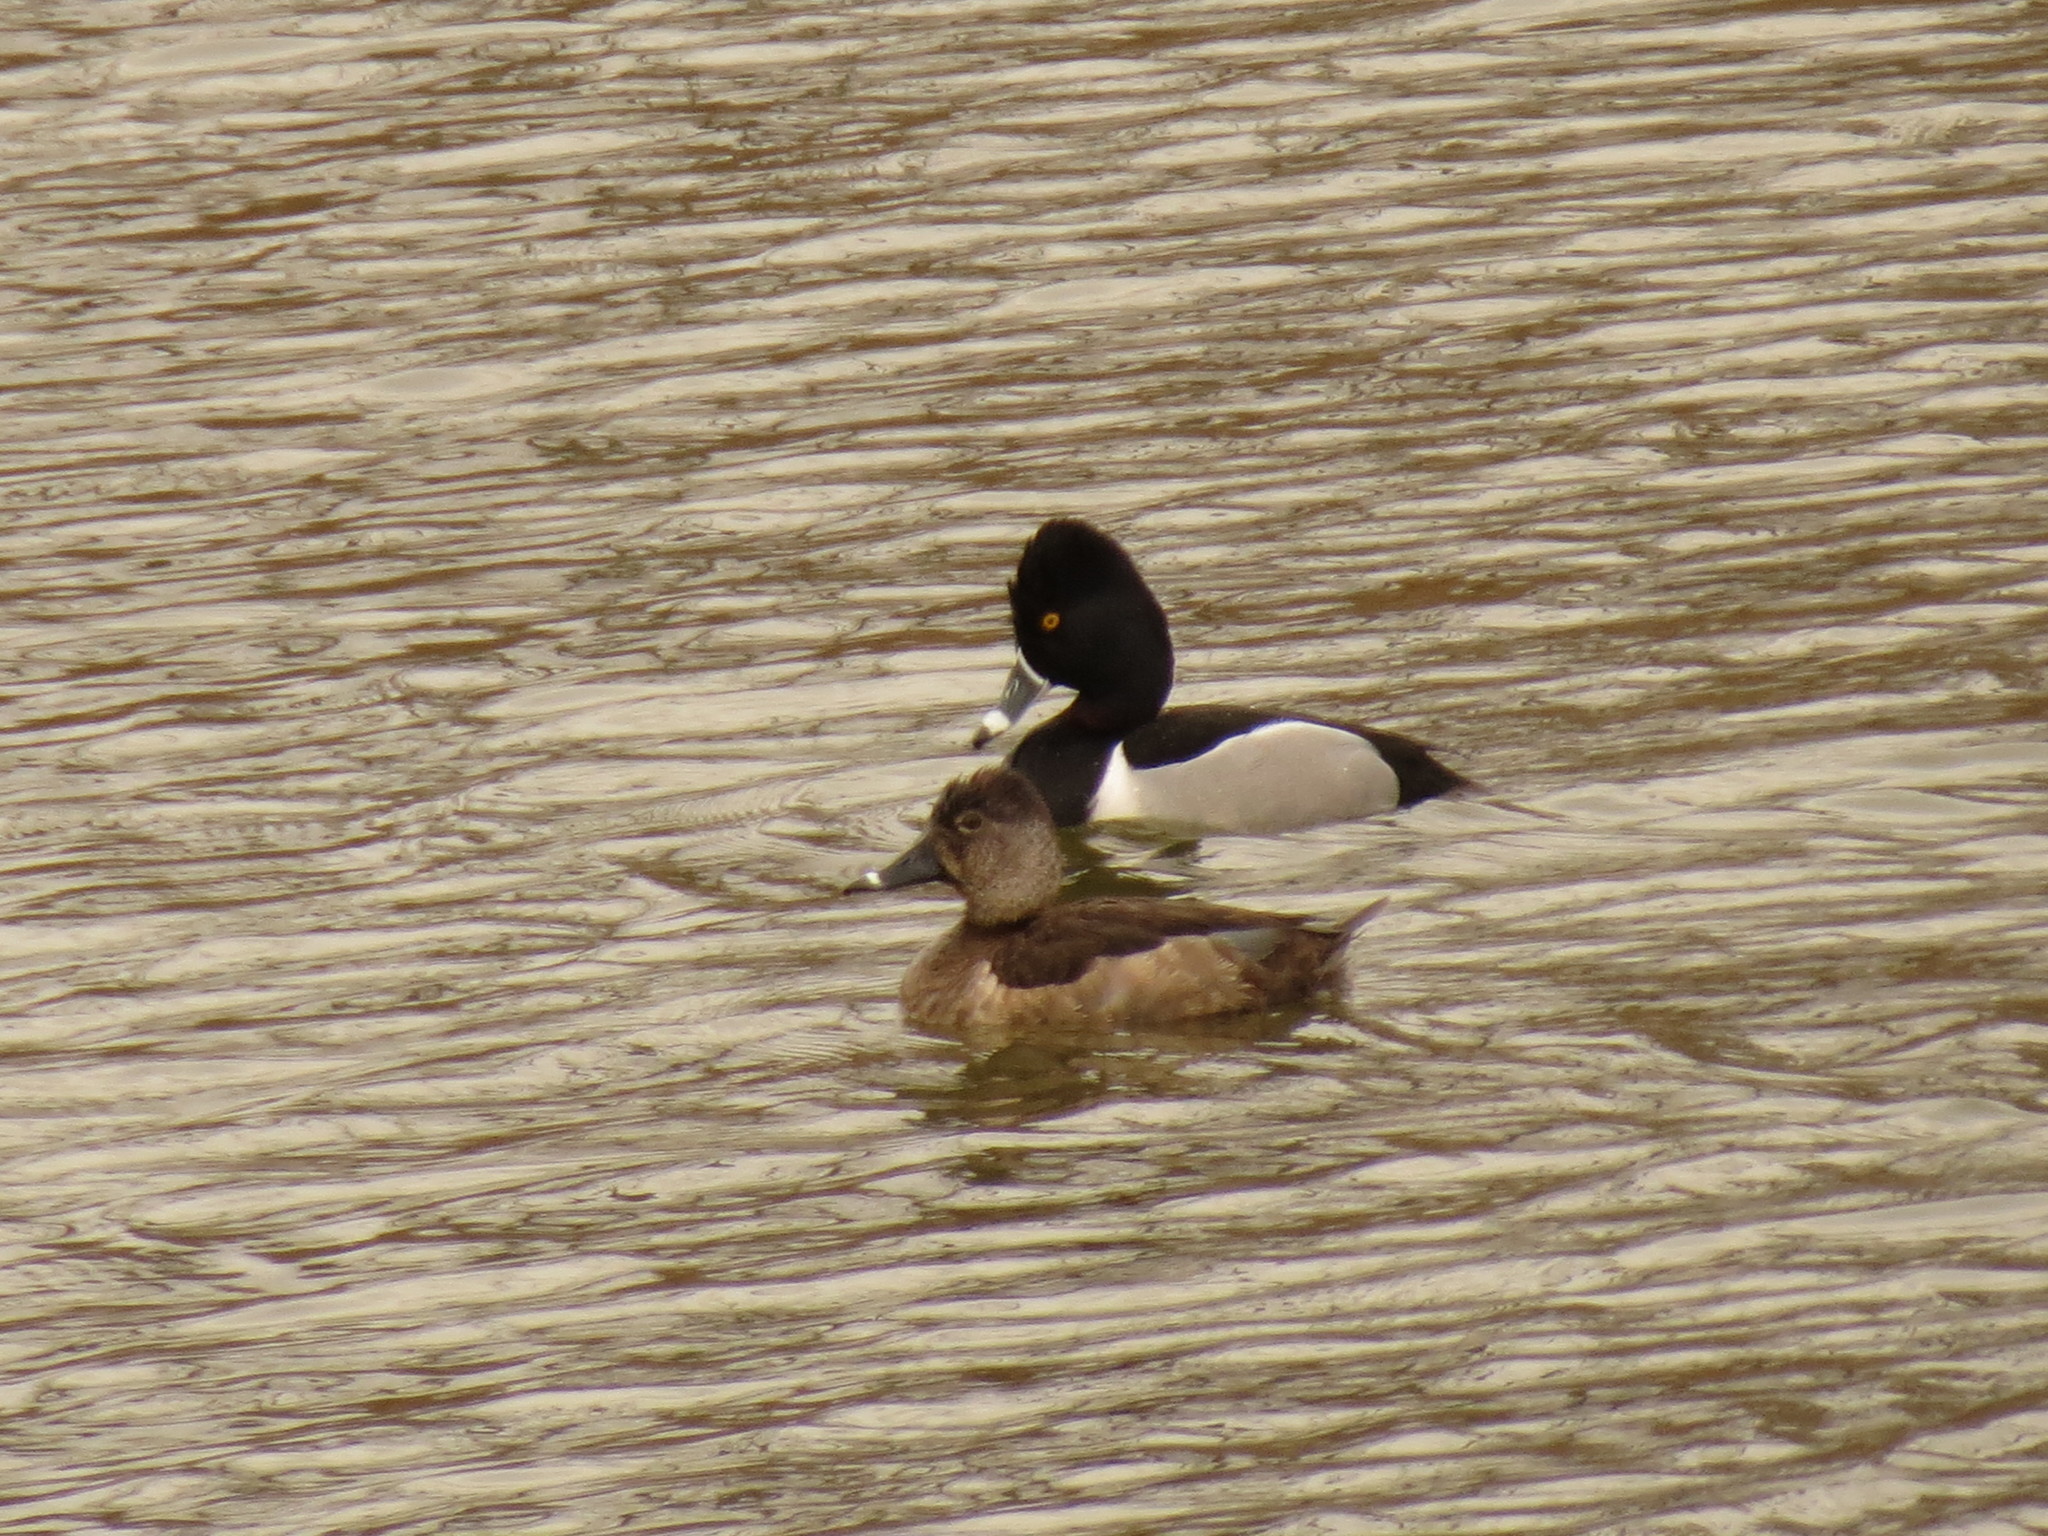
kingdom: Animalia
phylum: Chordata
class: Aves
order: Anseriformes
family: Anatidae
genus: Aythya
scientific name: Aythya collaris
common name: Ring-necked duck
